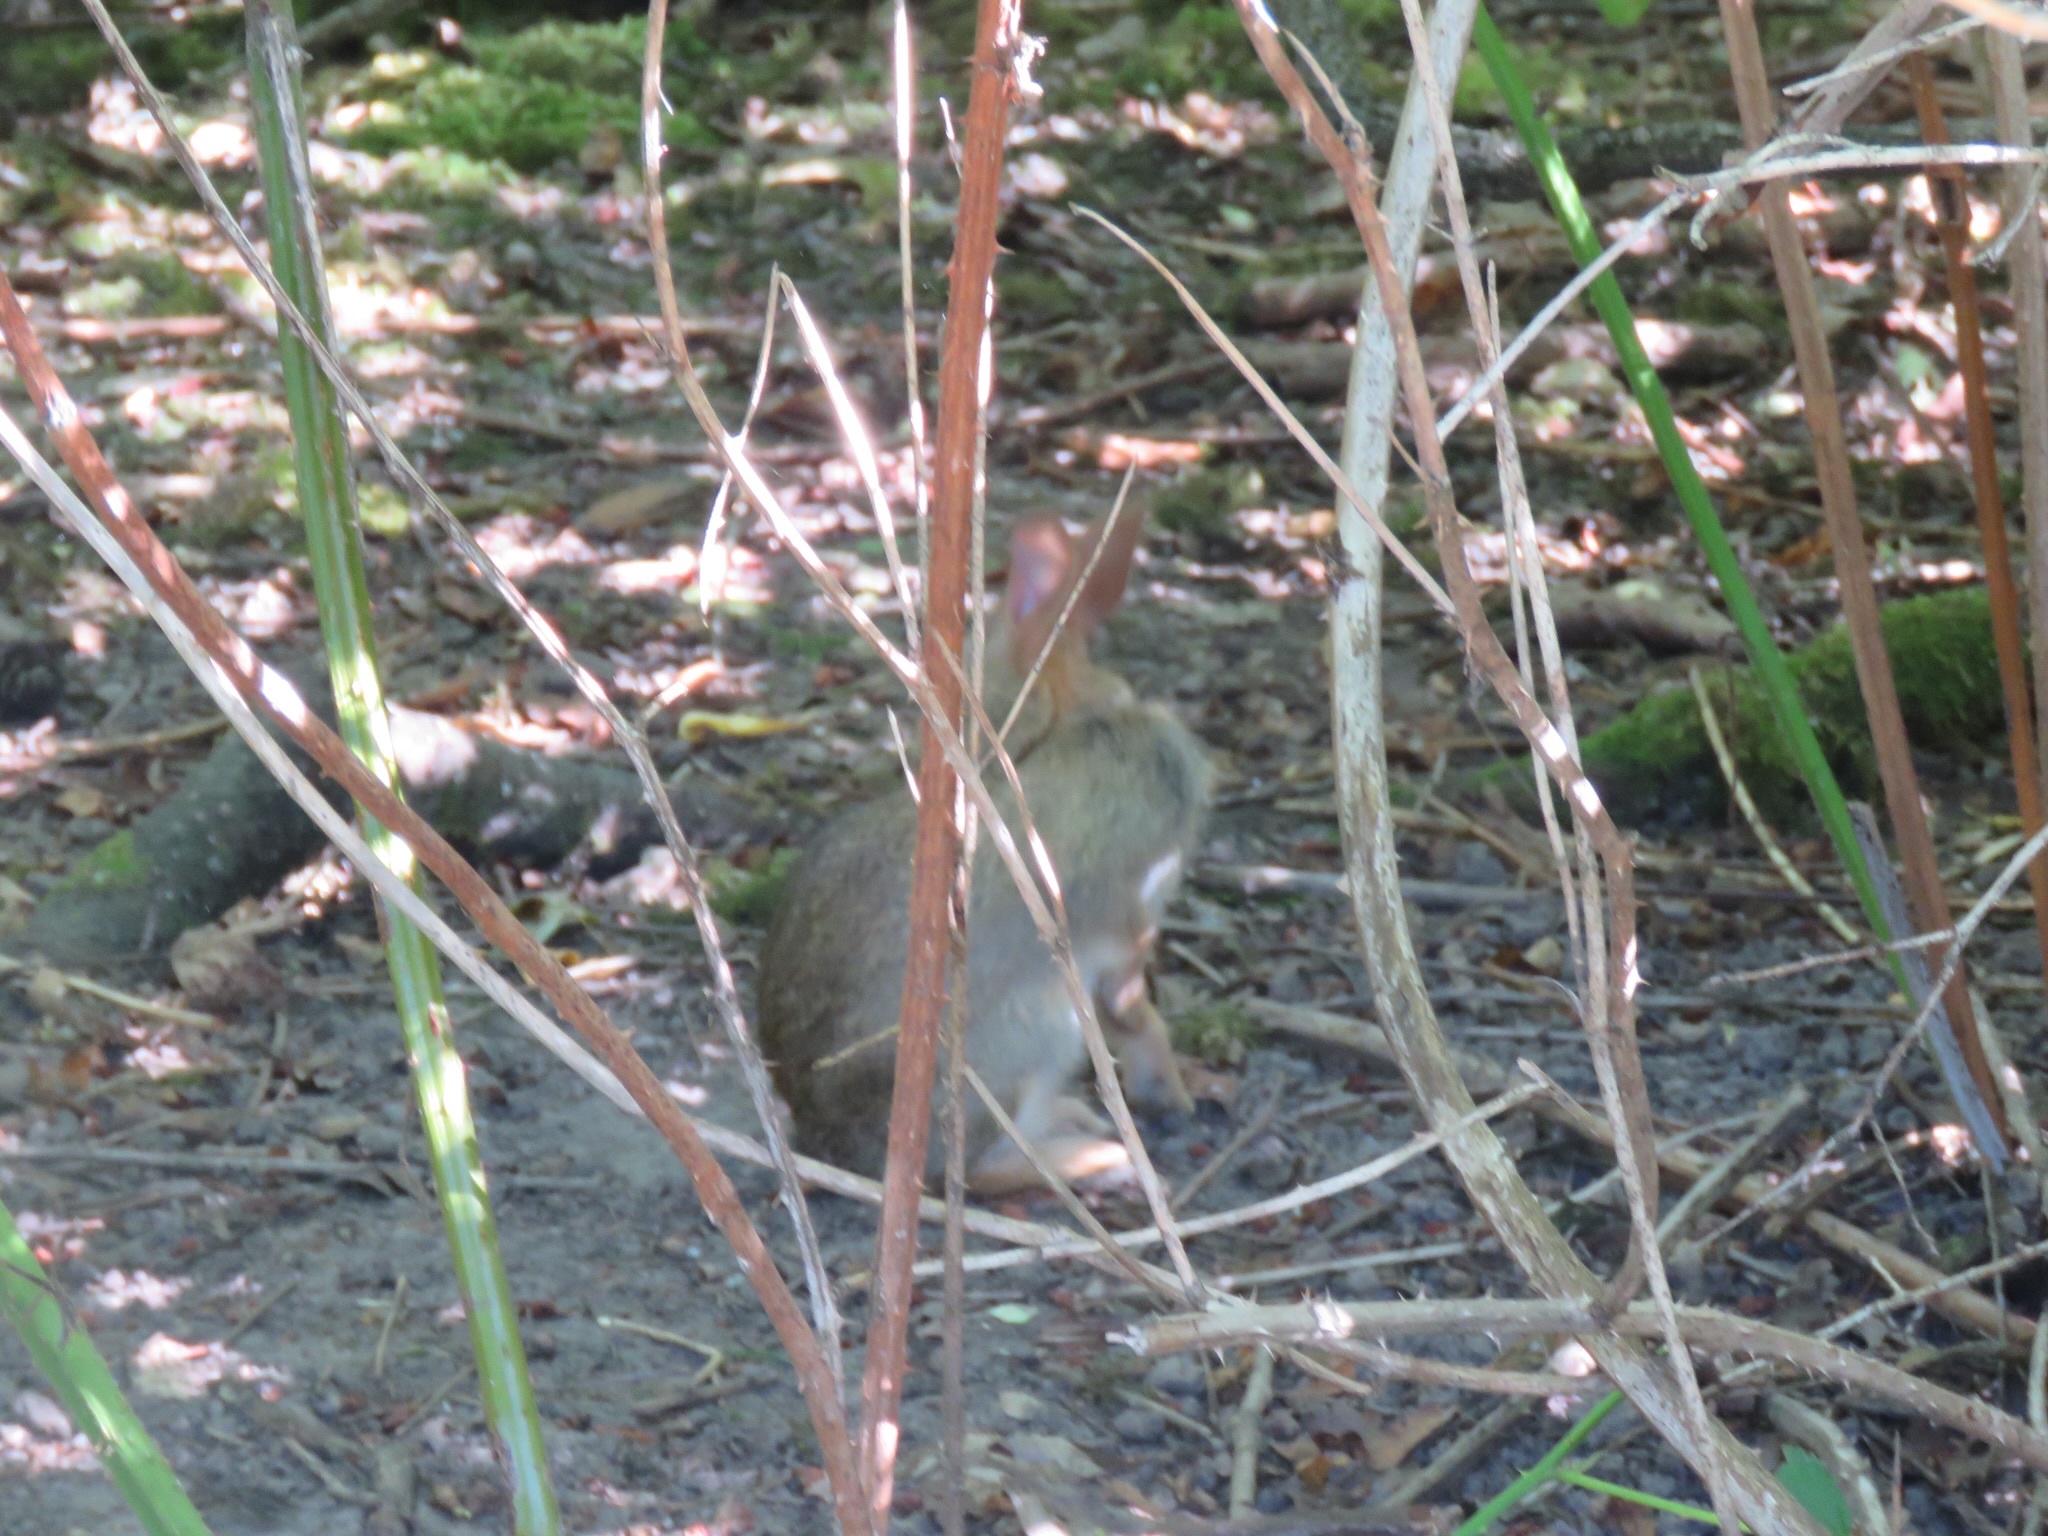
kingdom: Animalia
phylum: Chordata
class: Mammalia
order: Lagomorpha
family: Leporidae
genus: Sylvilagus
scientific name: Sylvilagus floridanus
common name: Eastern cottontail
